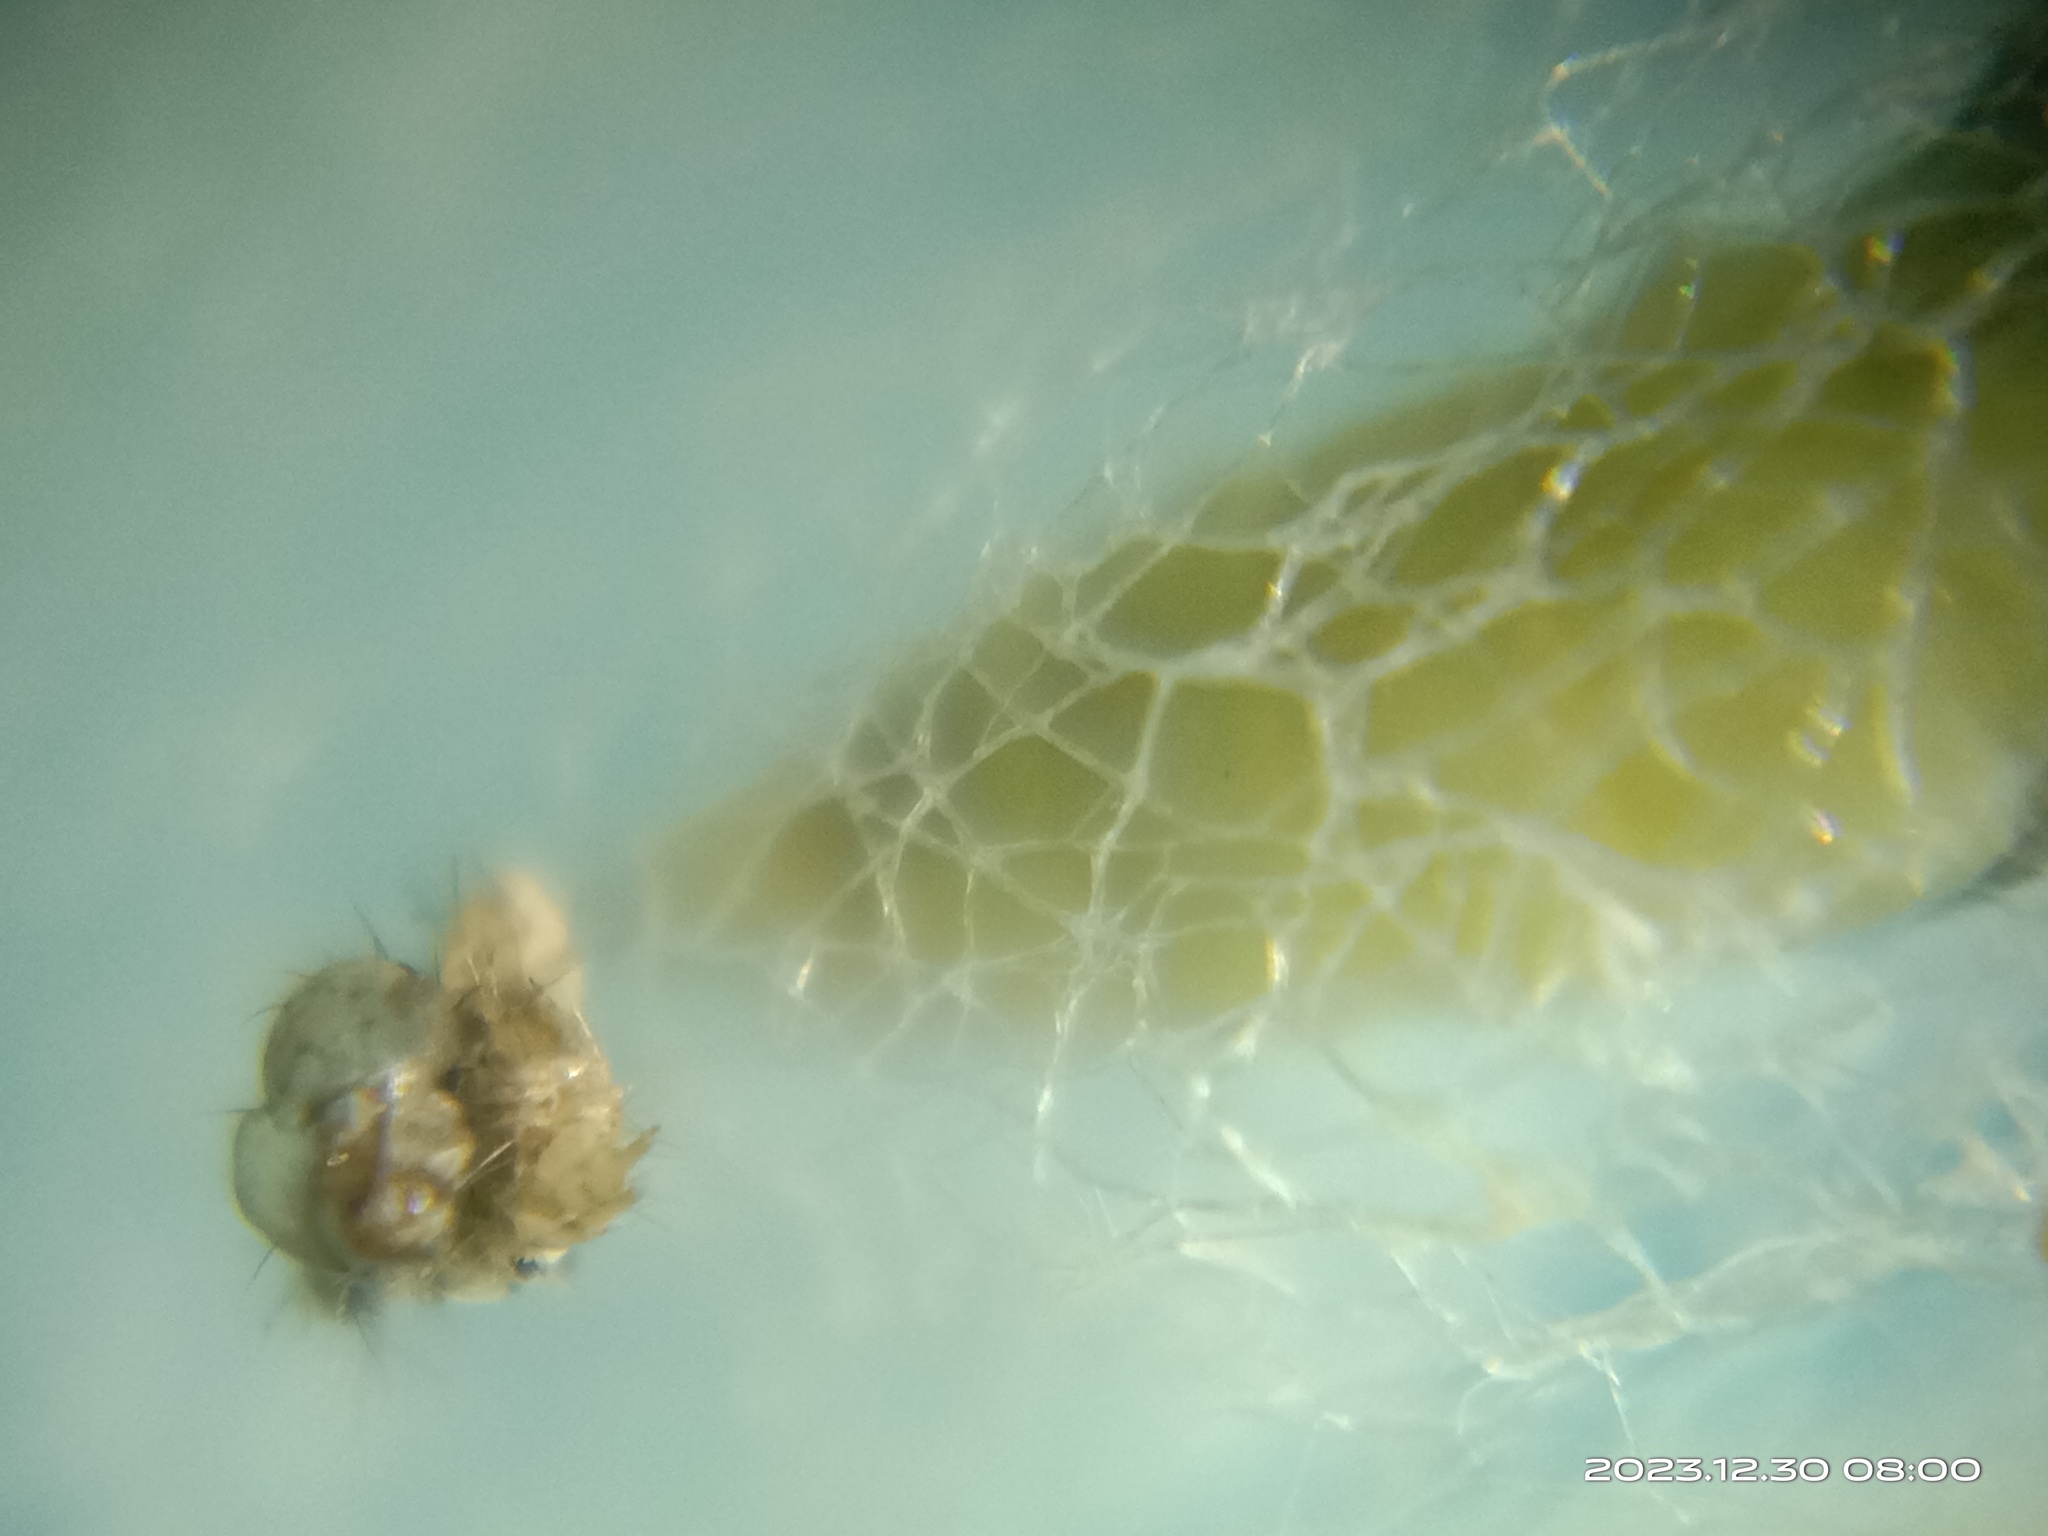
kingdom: Animalia
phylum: Arthropoda
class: Insecta
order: Lepidoptera
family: Plutellidae
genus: Plutella
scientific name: Plutella xylostella
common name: Diamond-back moth
